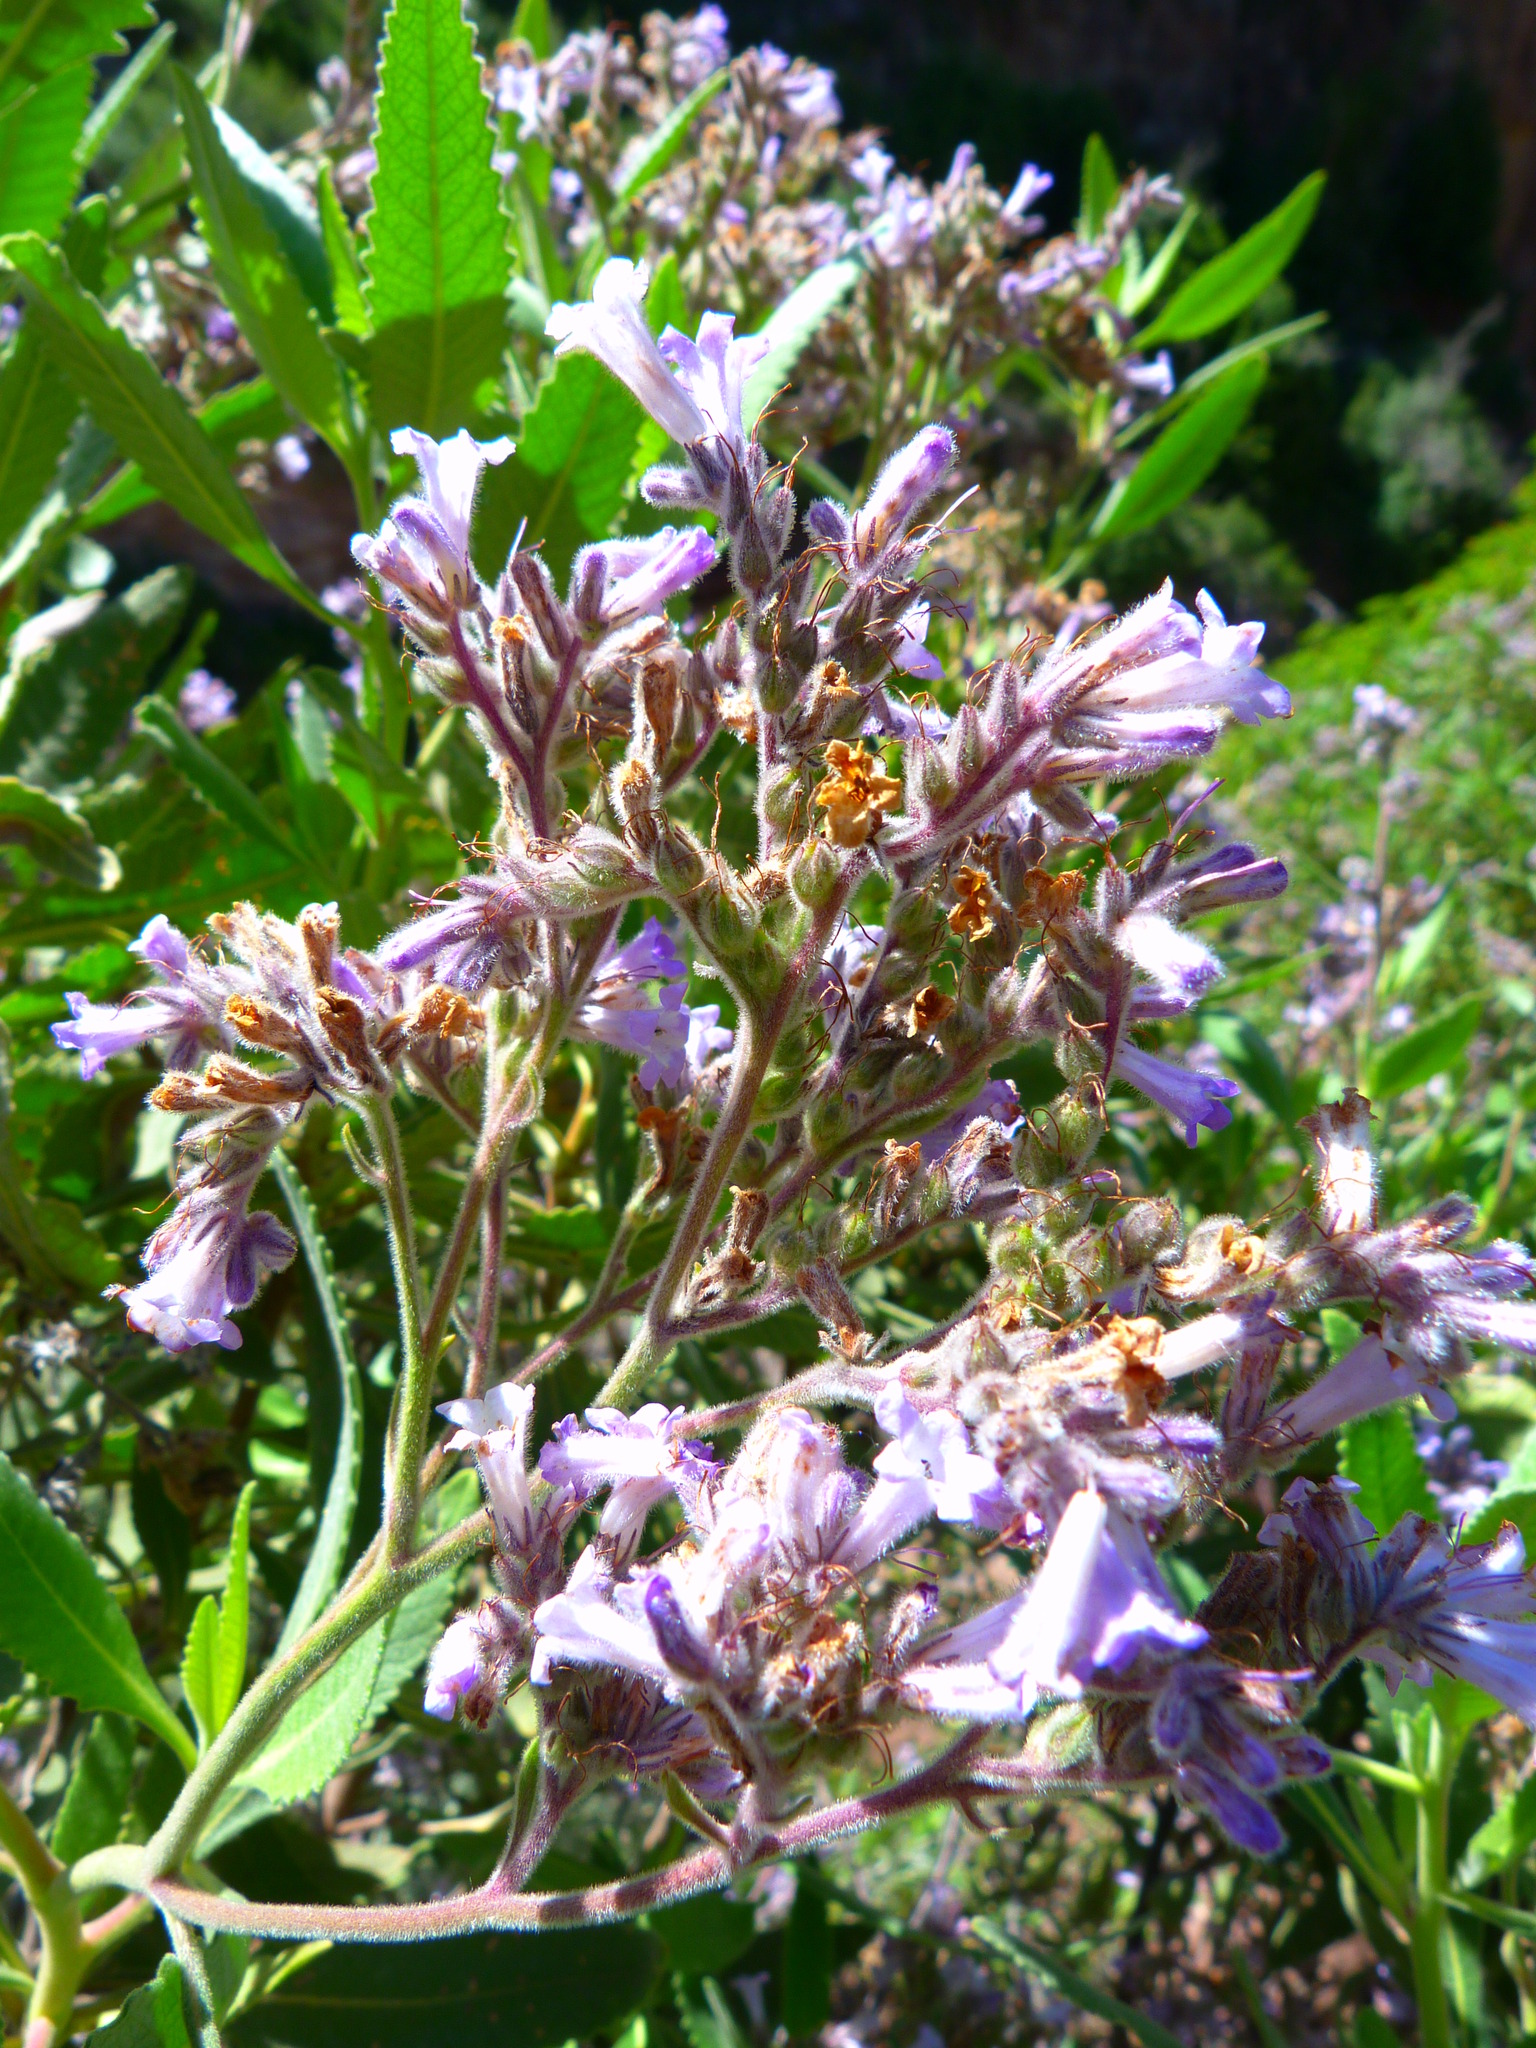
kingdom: Plantae
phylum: Tracheophyta
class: Magnoliopsida
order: Boraginales
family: Namaceae
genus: Eriodictyon
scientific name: Eriodictyon crassifolium
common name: Thick-leaf yerba-santa
